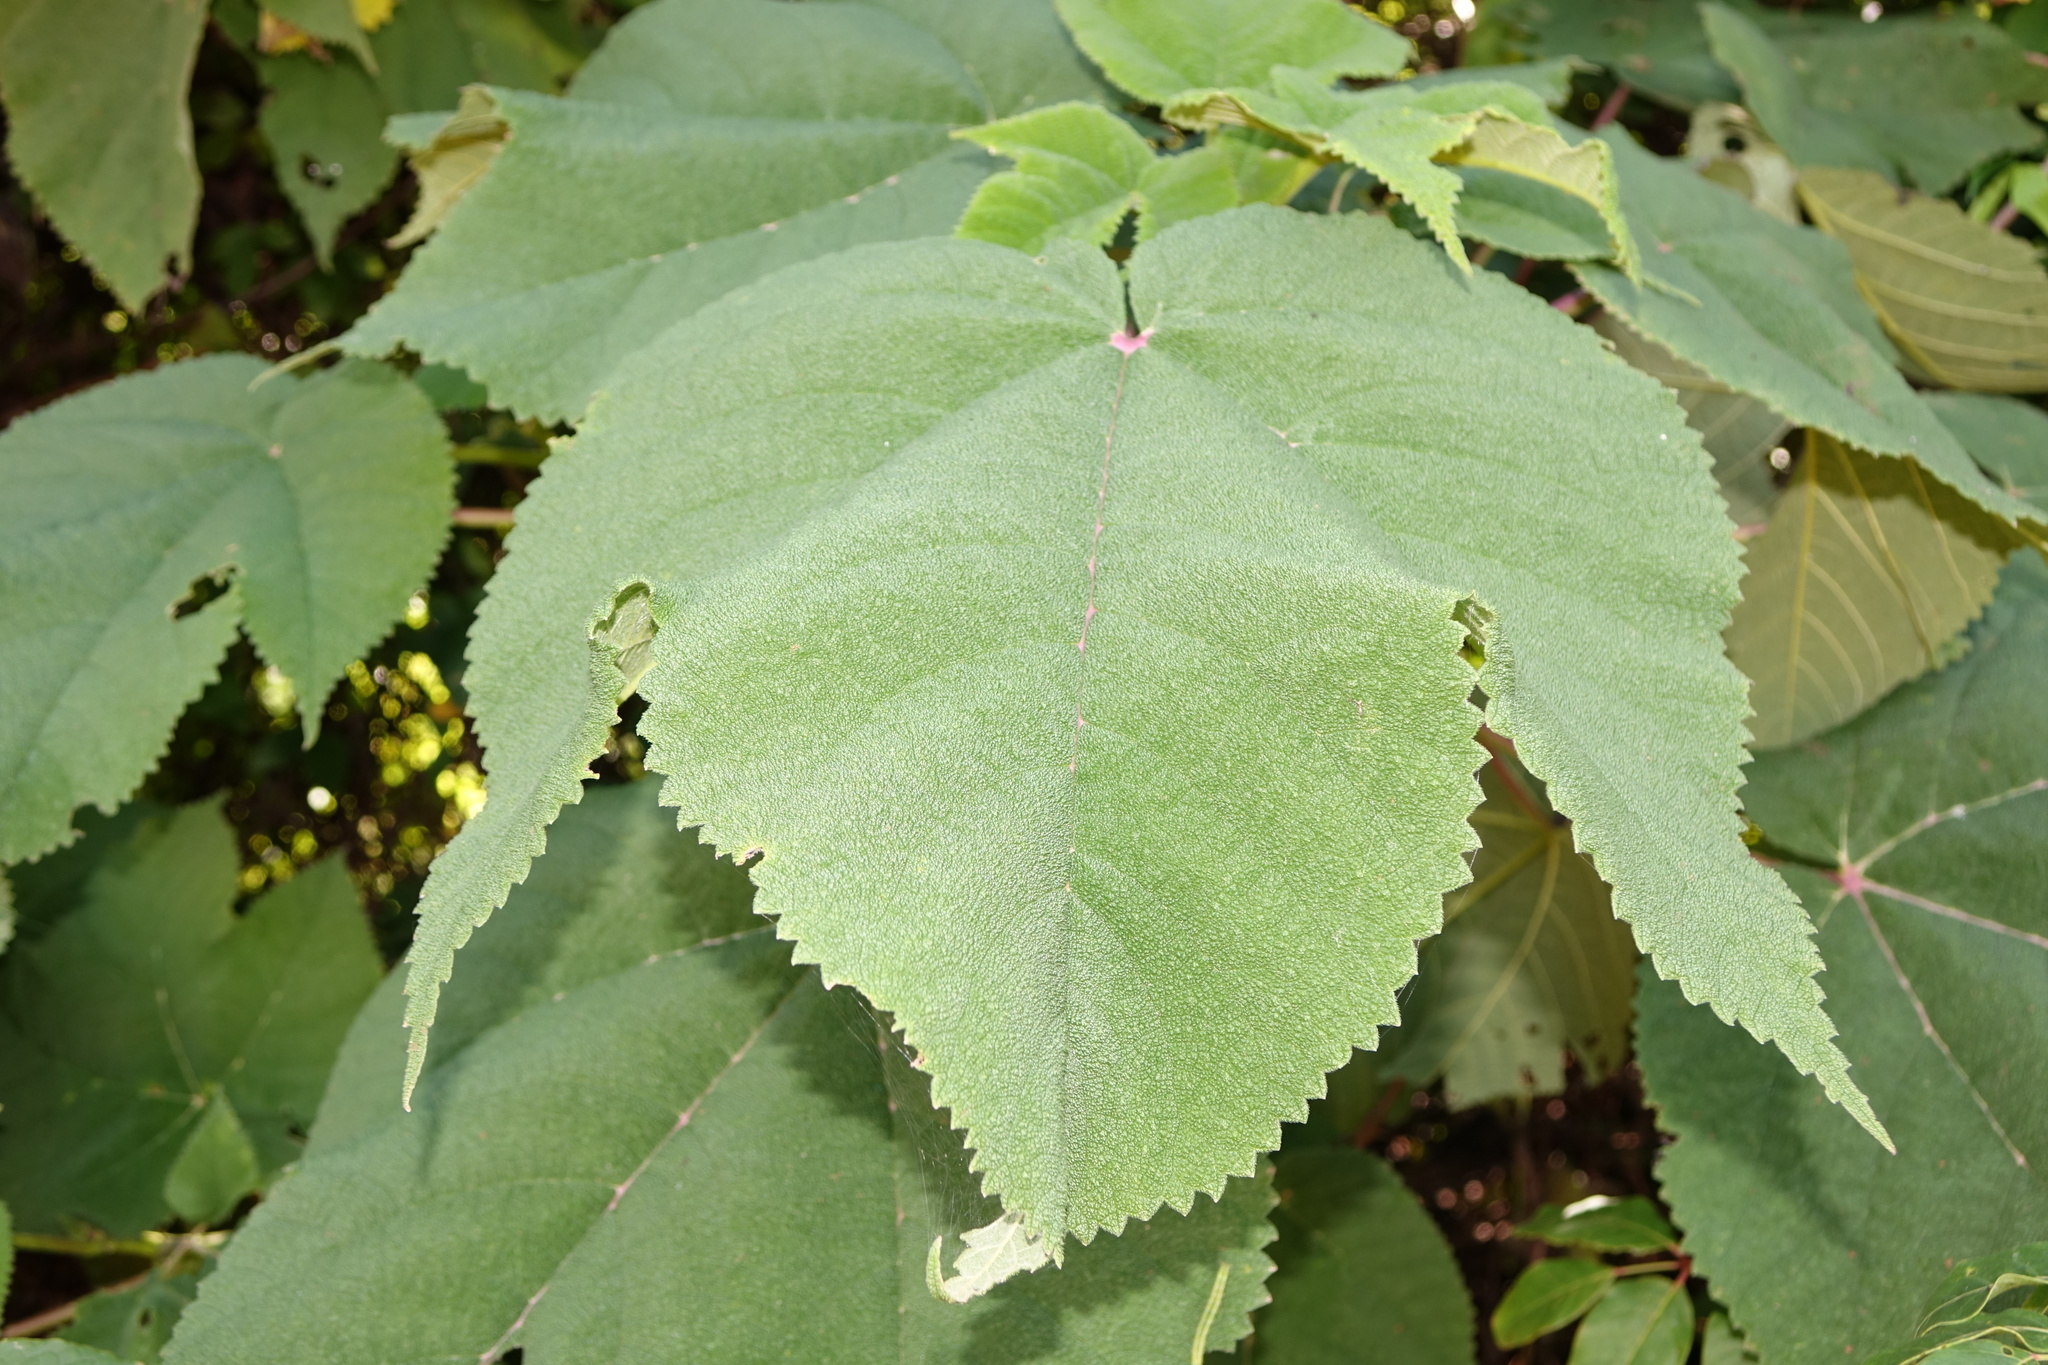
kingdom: Plantae
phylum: Tracheophyta
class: Magnoliopsida
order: Rosales
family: Urticaceae
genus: Obetia
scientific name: Obetia radula
